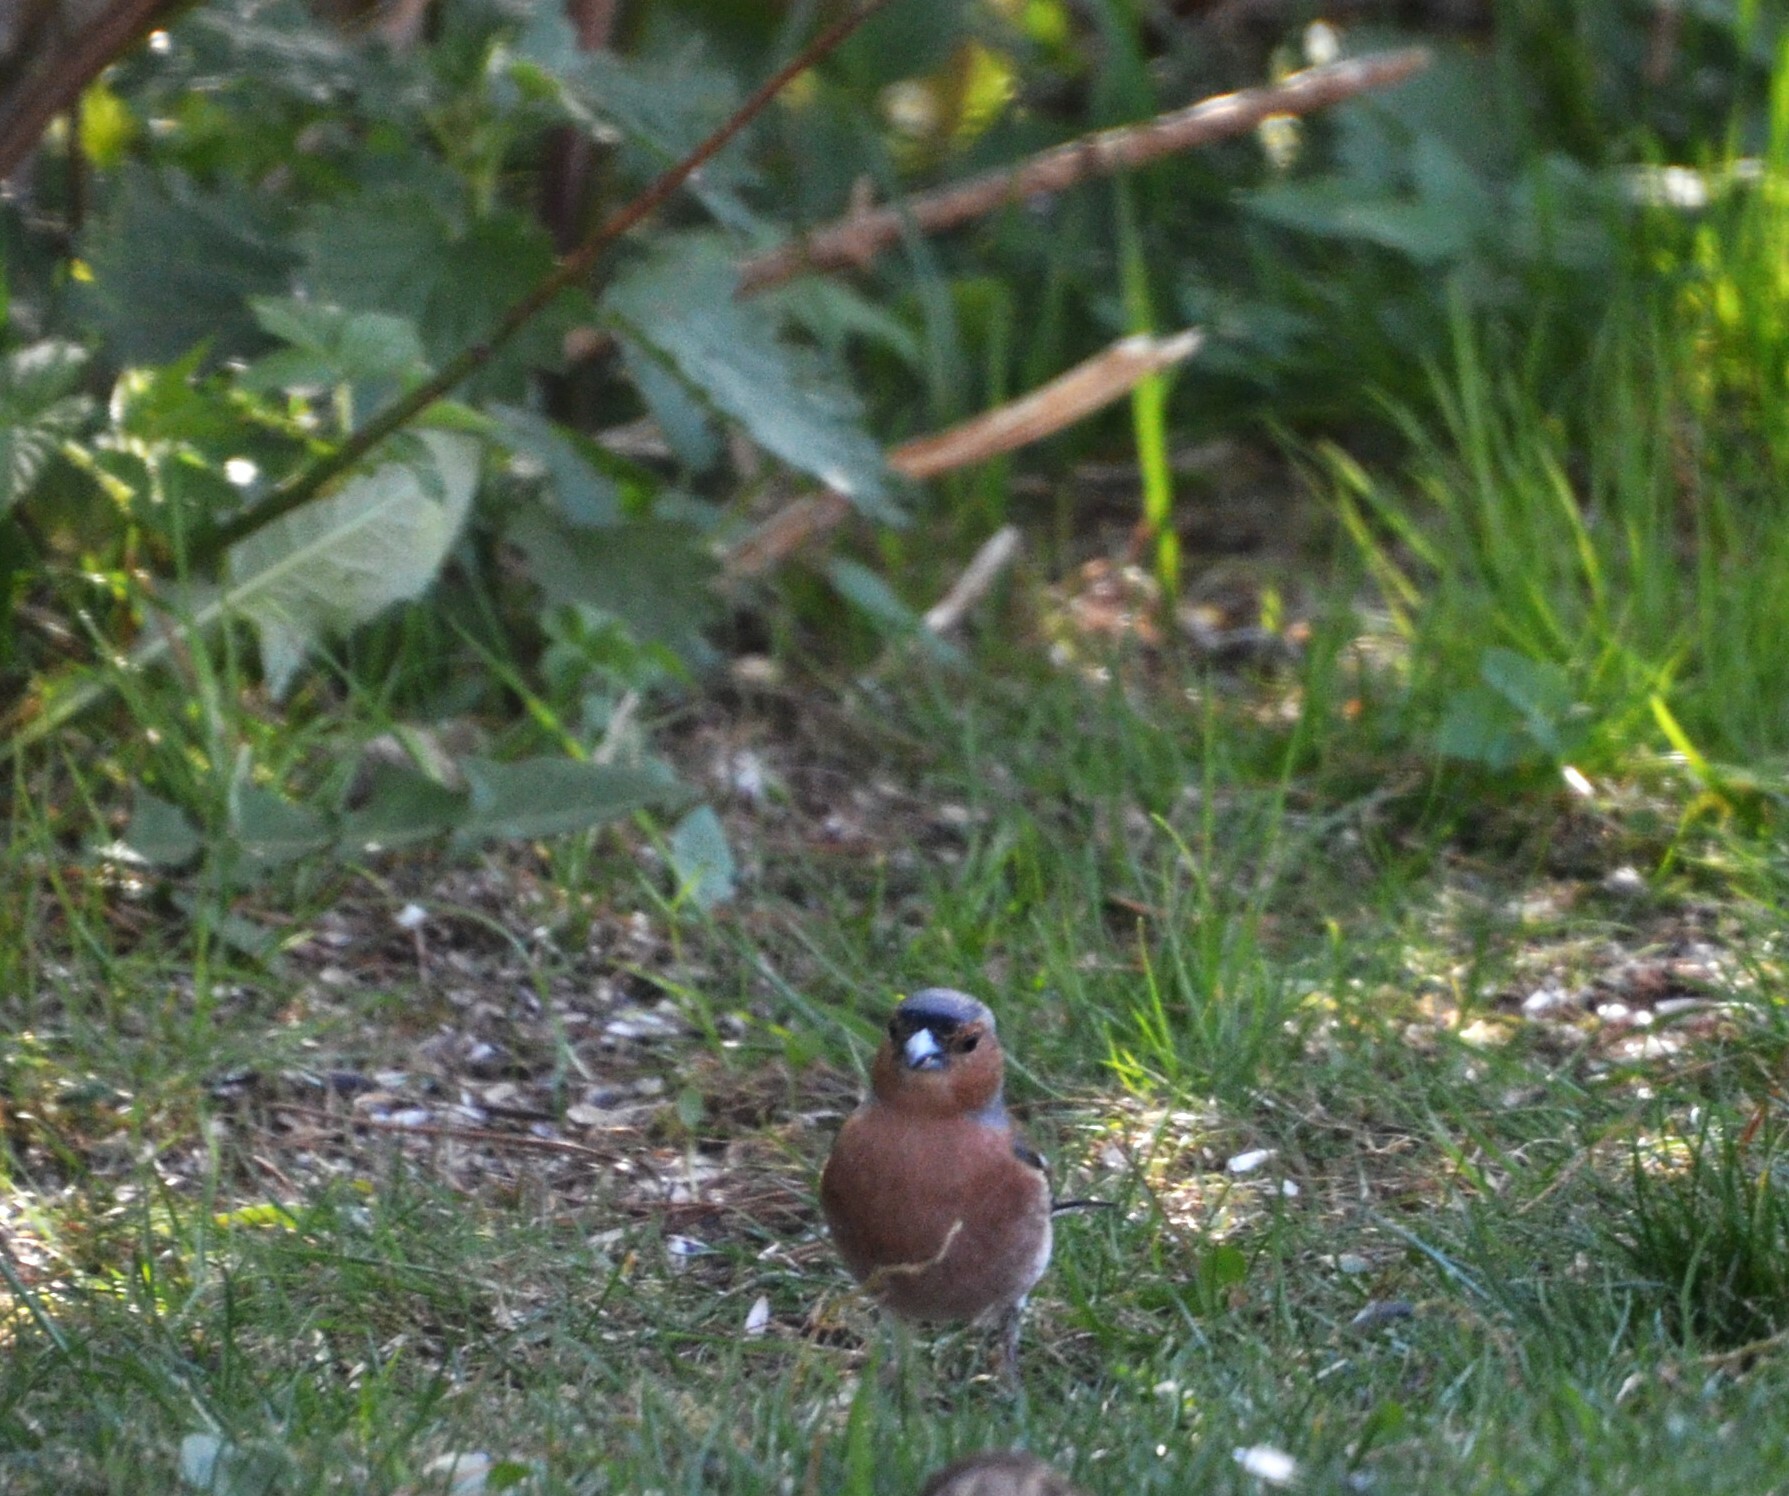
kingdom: Animalia
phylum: Chordata
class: Aves
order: Passeriformes
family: Fringillidae
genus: Fringilla
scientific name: Fringilla coelebs
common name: Common chaffinch
